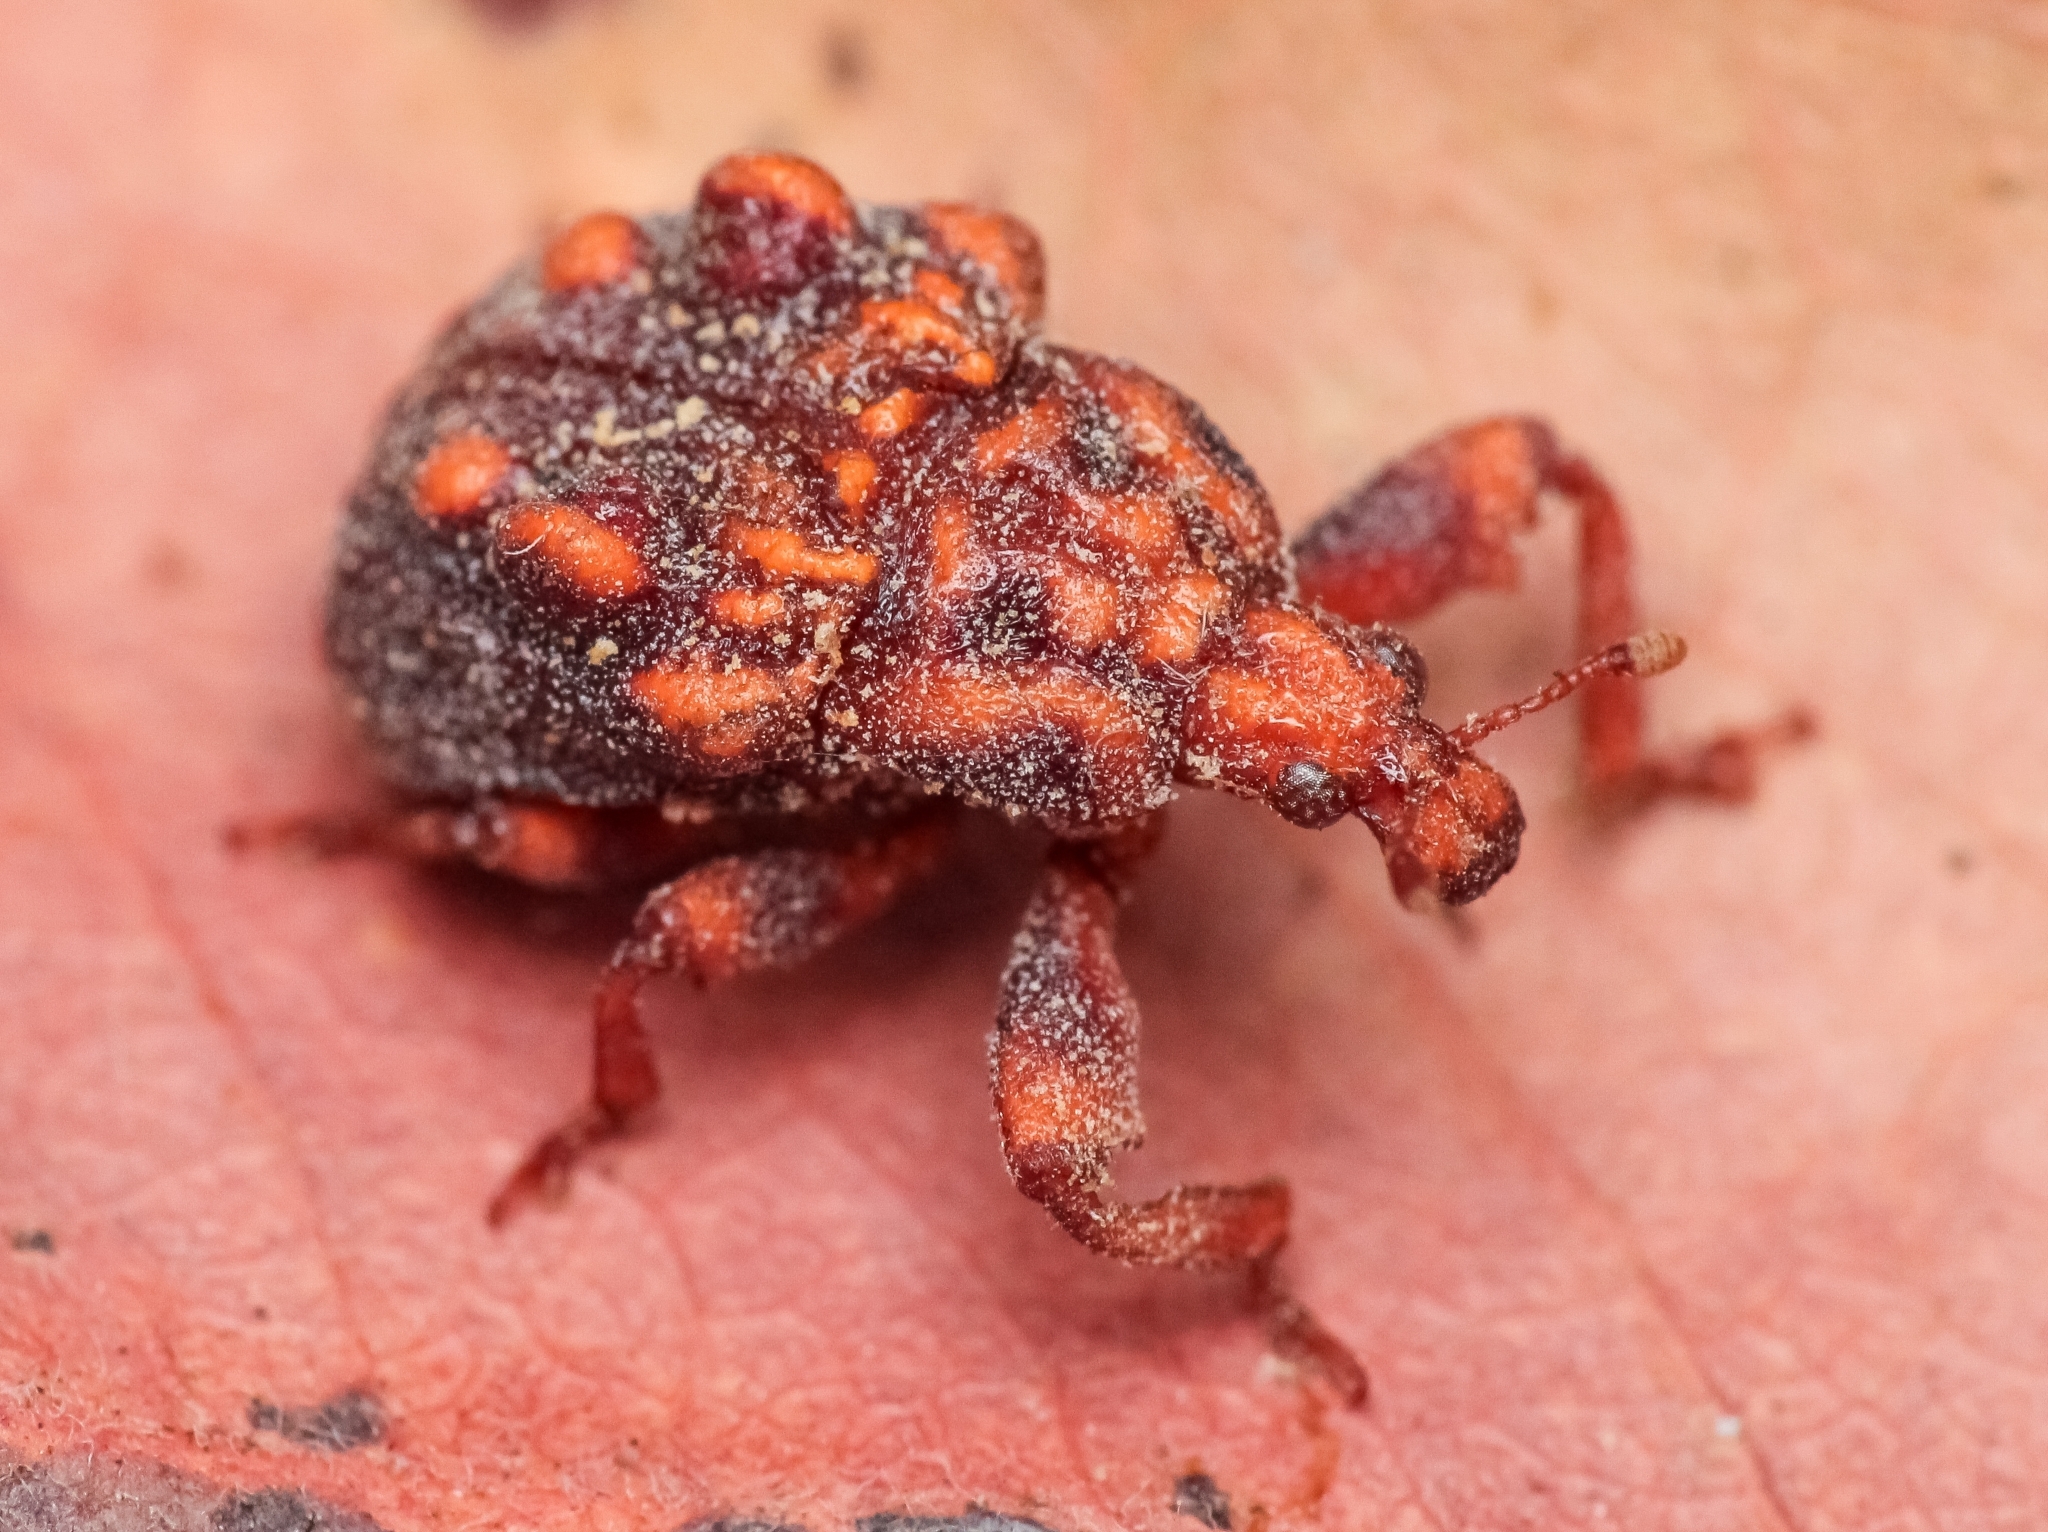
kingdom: Animalia
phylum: Arthropoda
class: Insecta
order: Coleoptera
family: Attelabidae
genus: Phymatopsinus
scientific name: Phymatopsinus pustula
